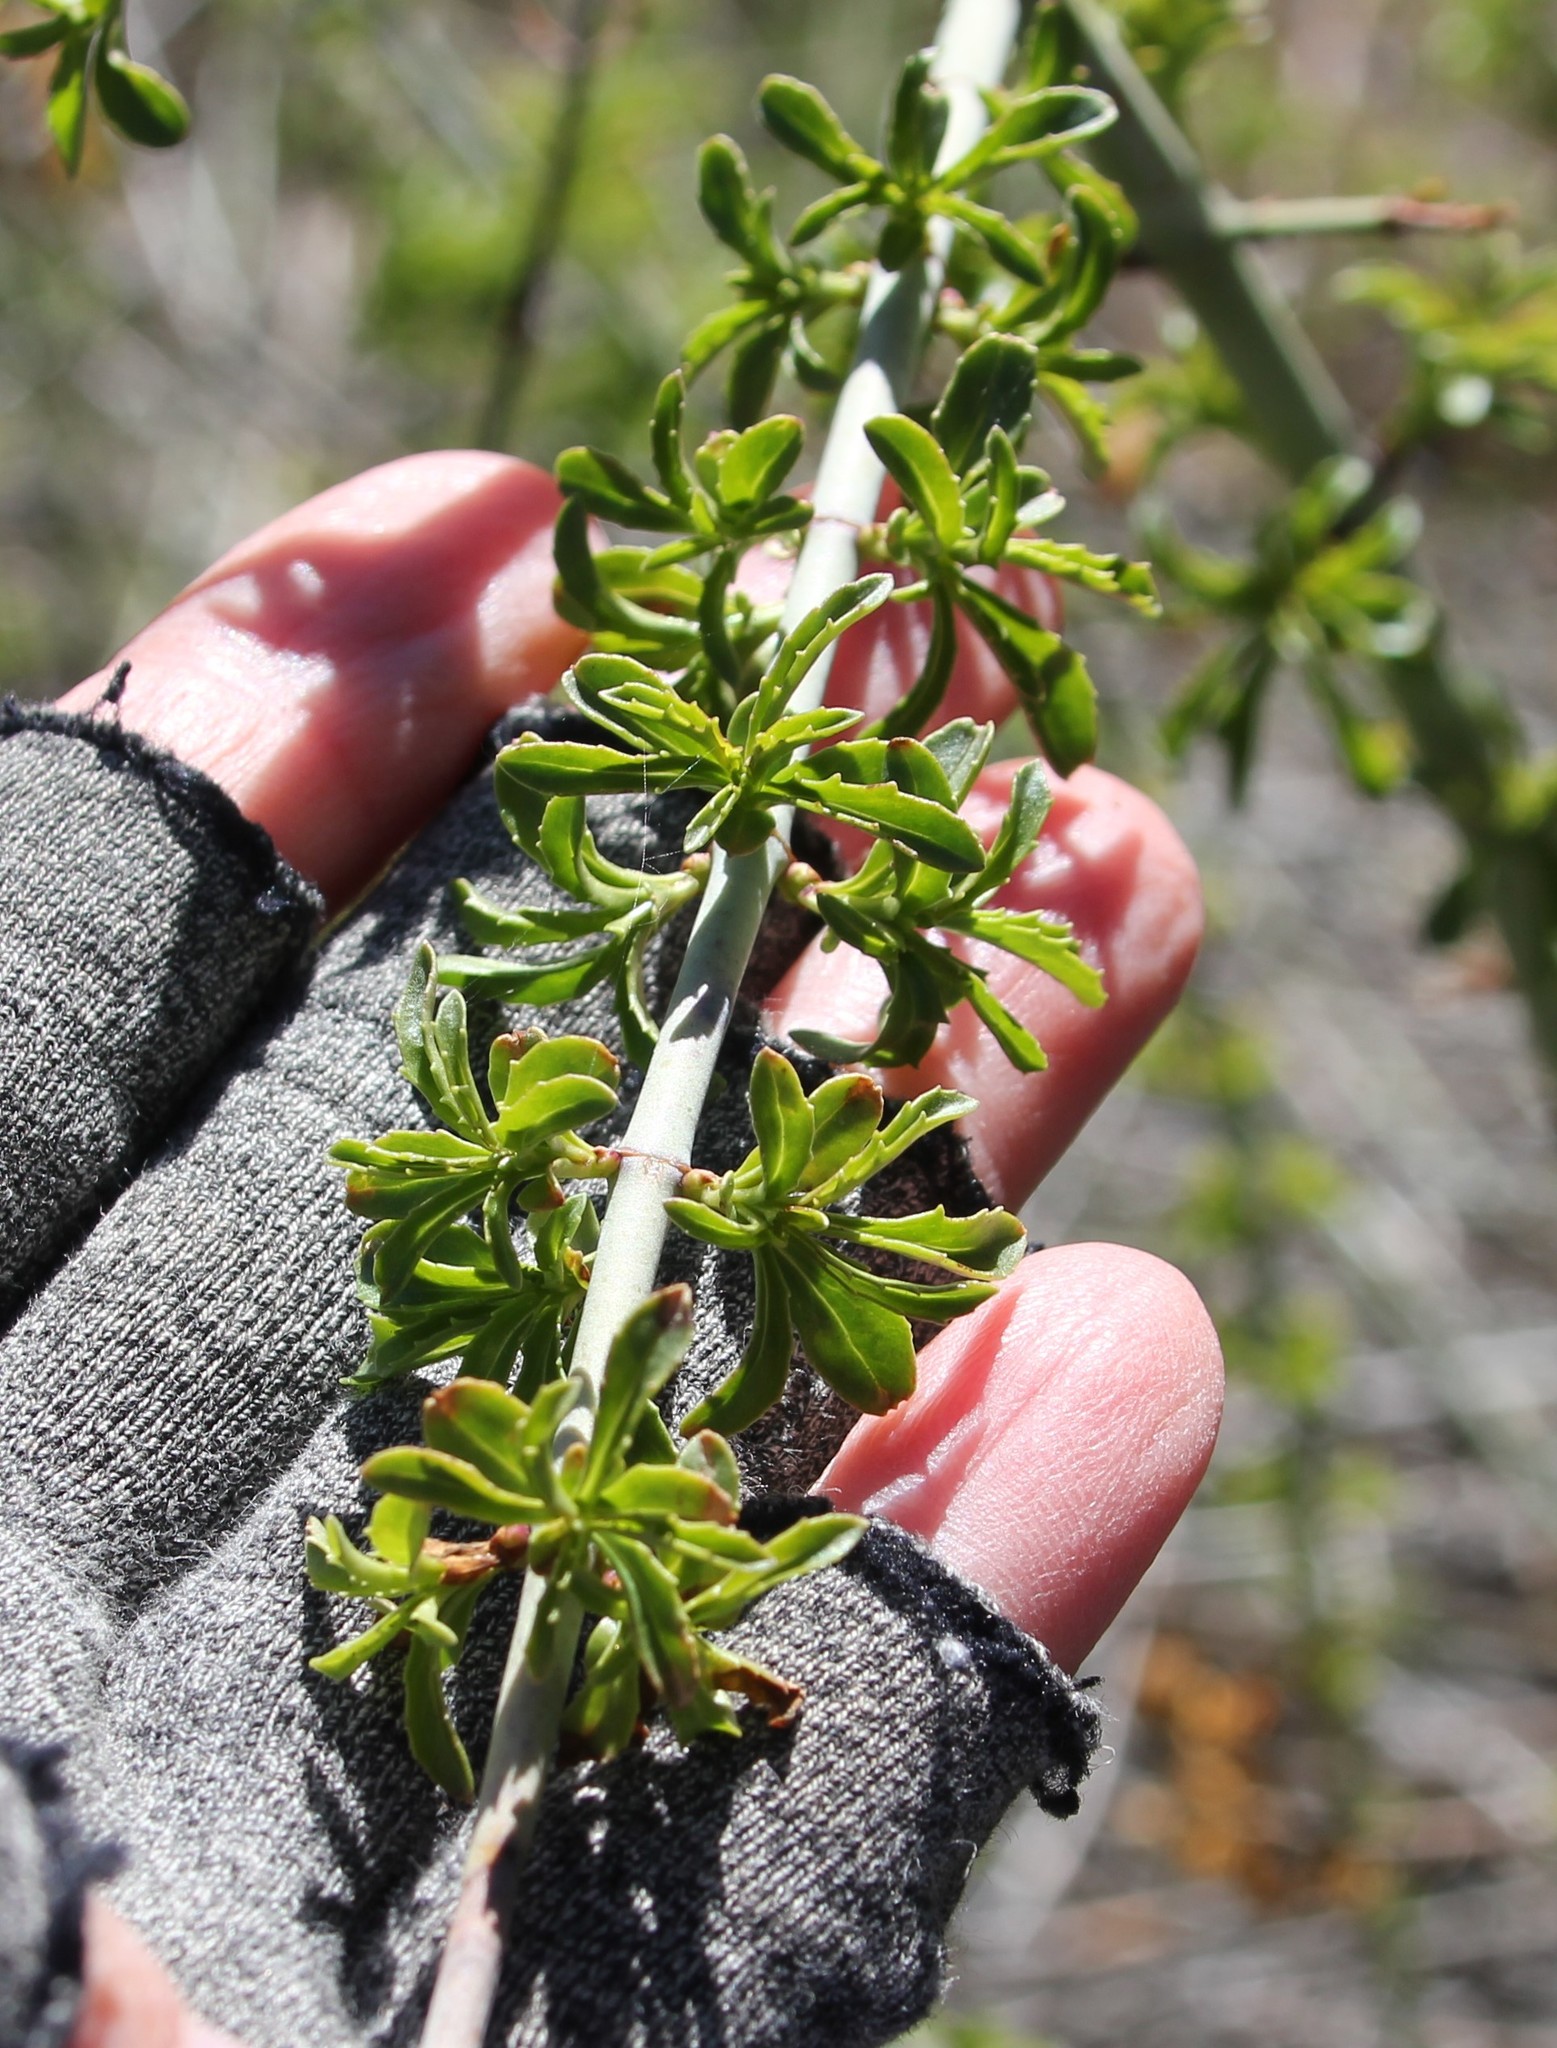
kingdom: Plantae
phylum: Tracheophyta
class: Magnoliopsida
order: Lamiales
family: Plantaginaceae
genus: Keckiella
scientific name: Keckiella ternata
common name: Scarlet keckiella
